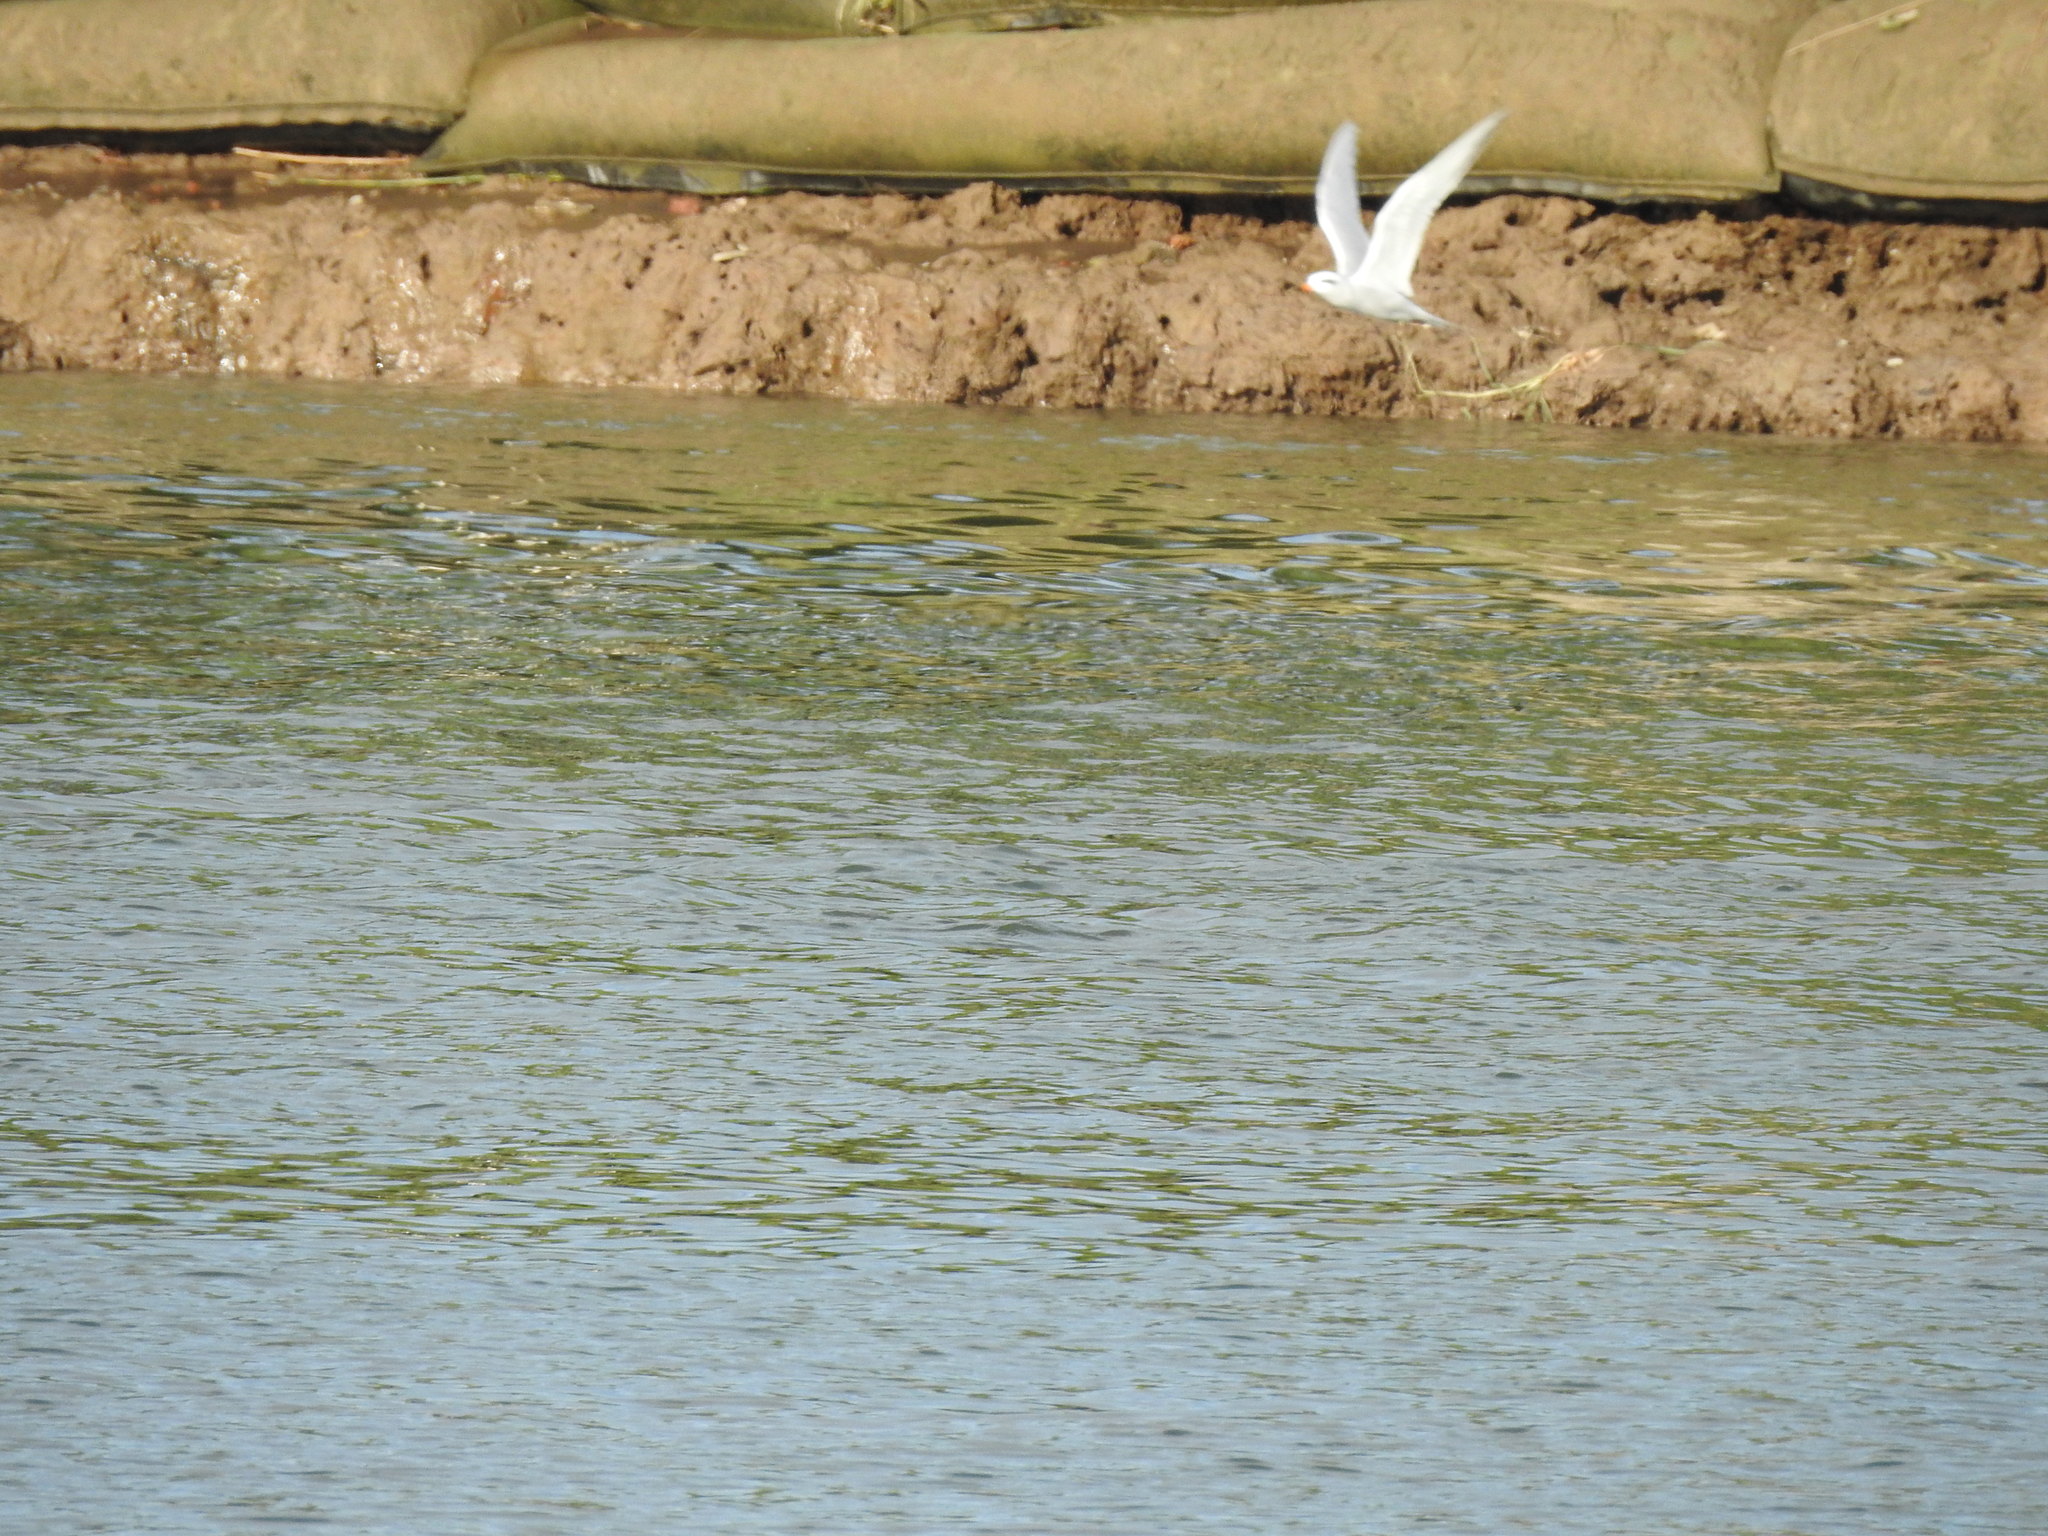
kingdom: Animalia
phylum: Chordata
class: Aves
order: Charadriiformes
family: Laridae
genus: Sterna
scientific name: Sterna trudeaui
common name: Snowy-crowned tern
